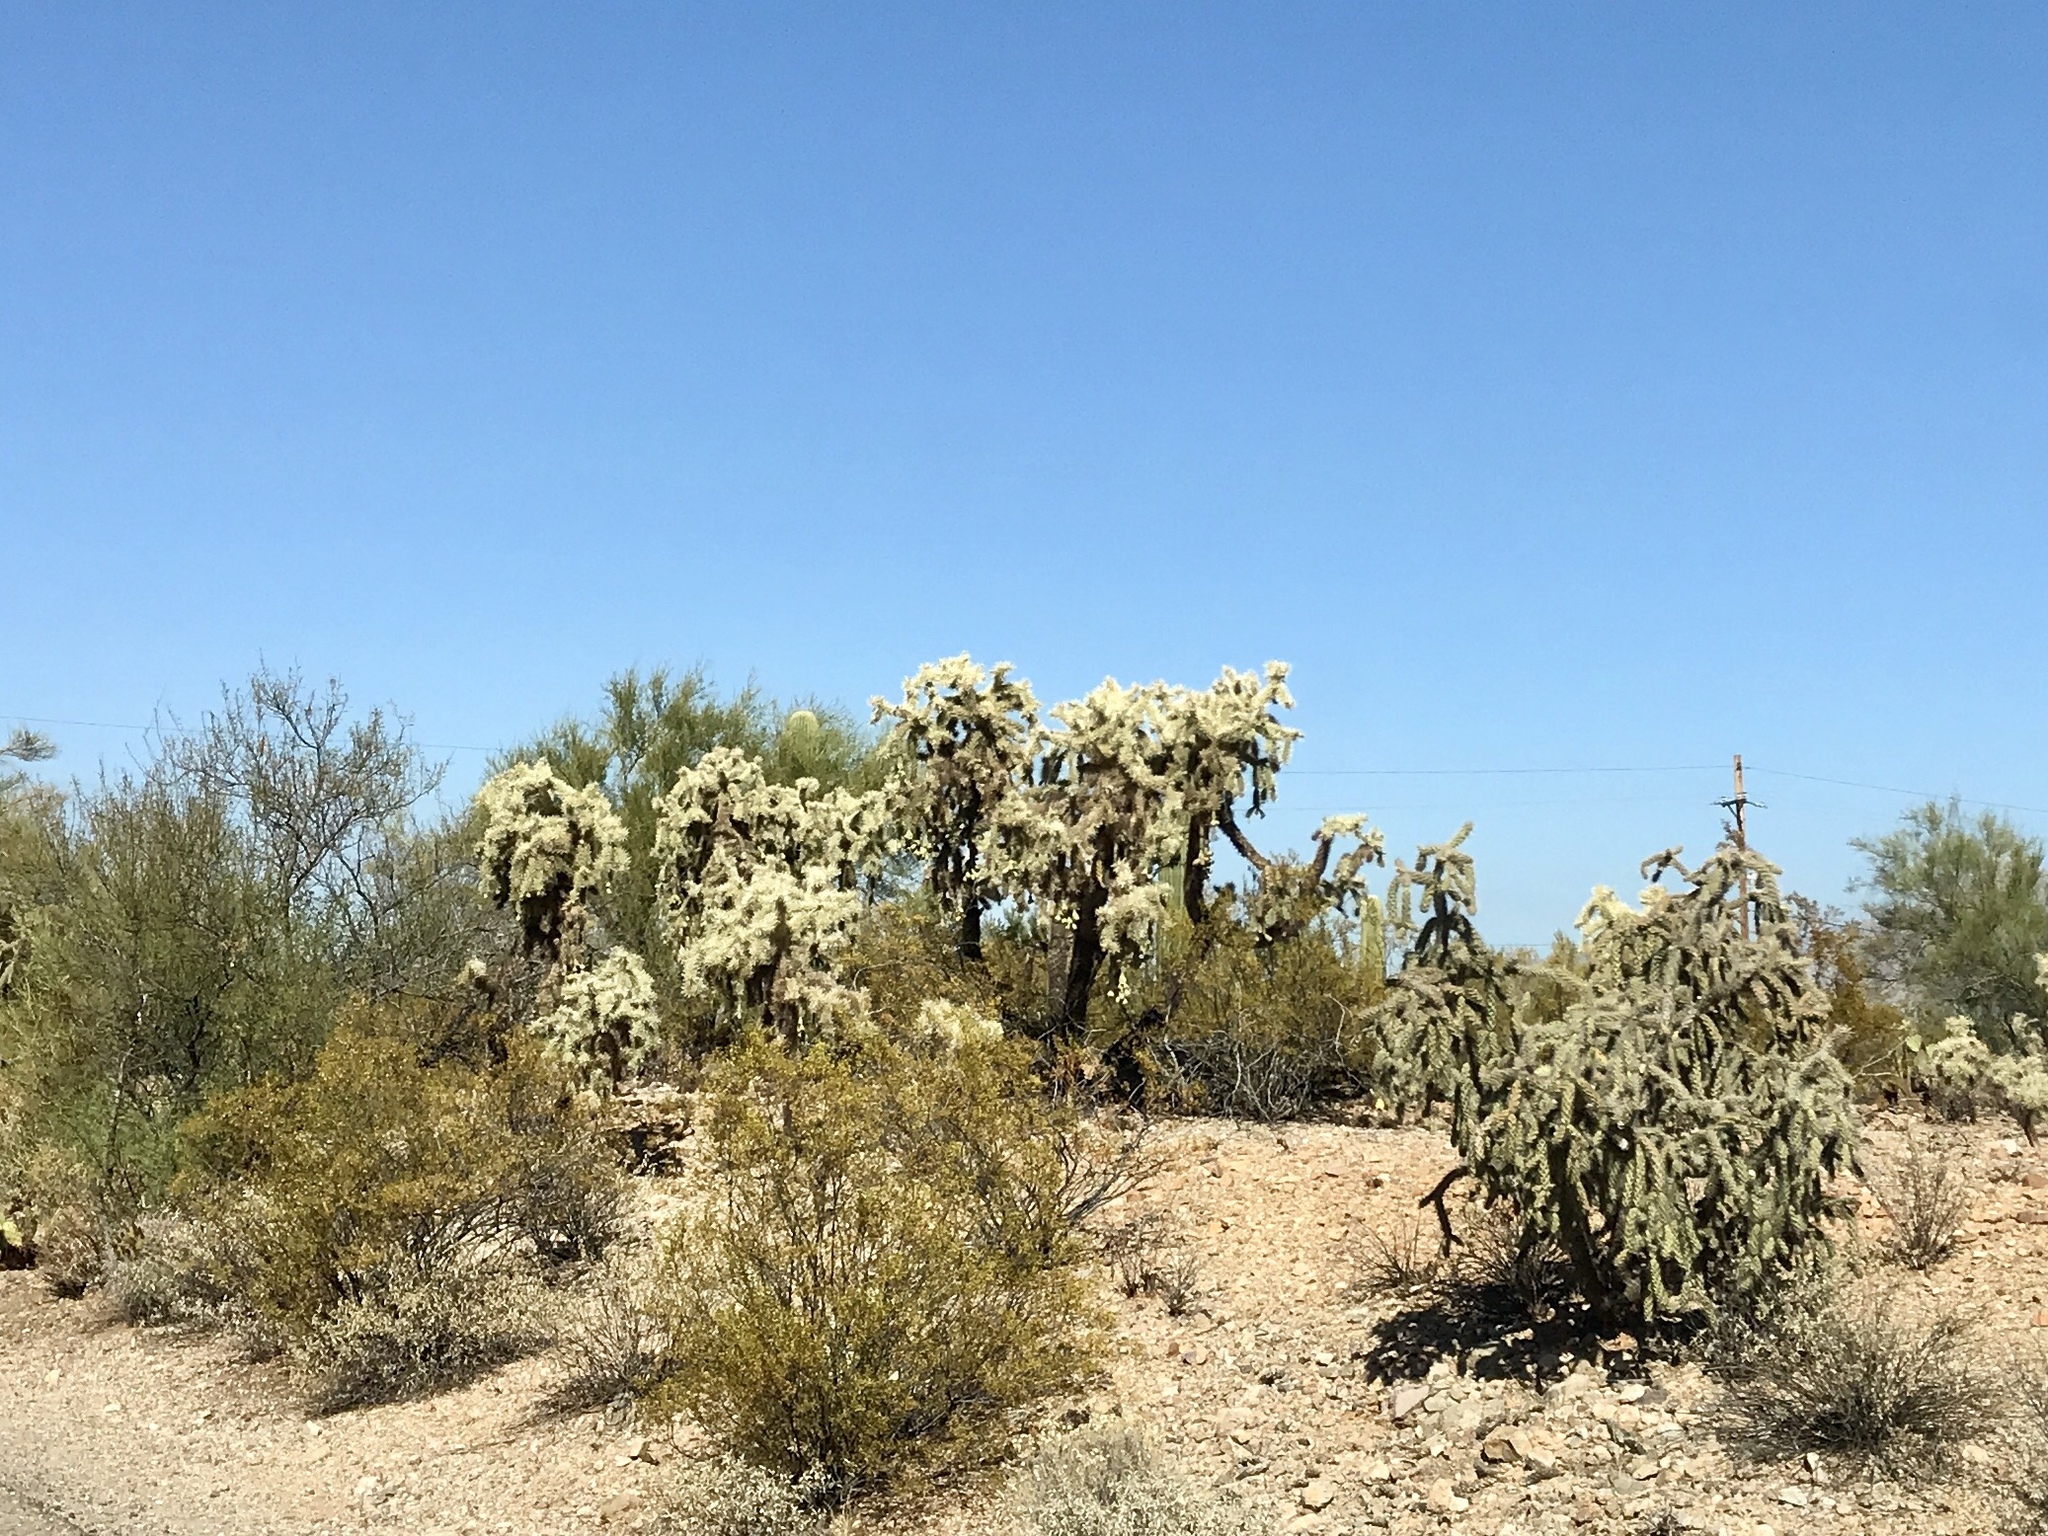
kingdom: Plantae
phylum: Tracheophyta
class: Magnoliopsida
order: Caryophyllales
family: Cactaceae
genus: Cylindropuntia
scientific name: Cylindropuntia fulgida
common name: Jumping cholla
